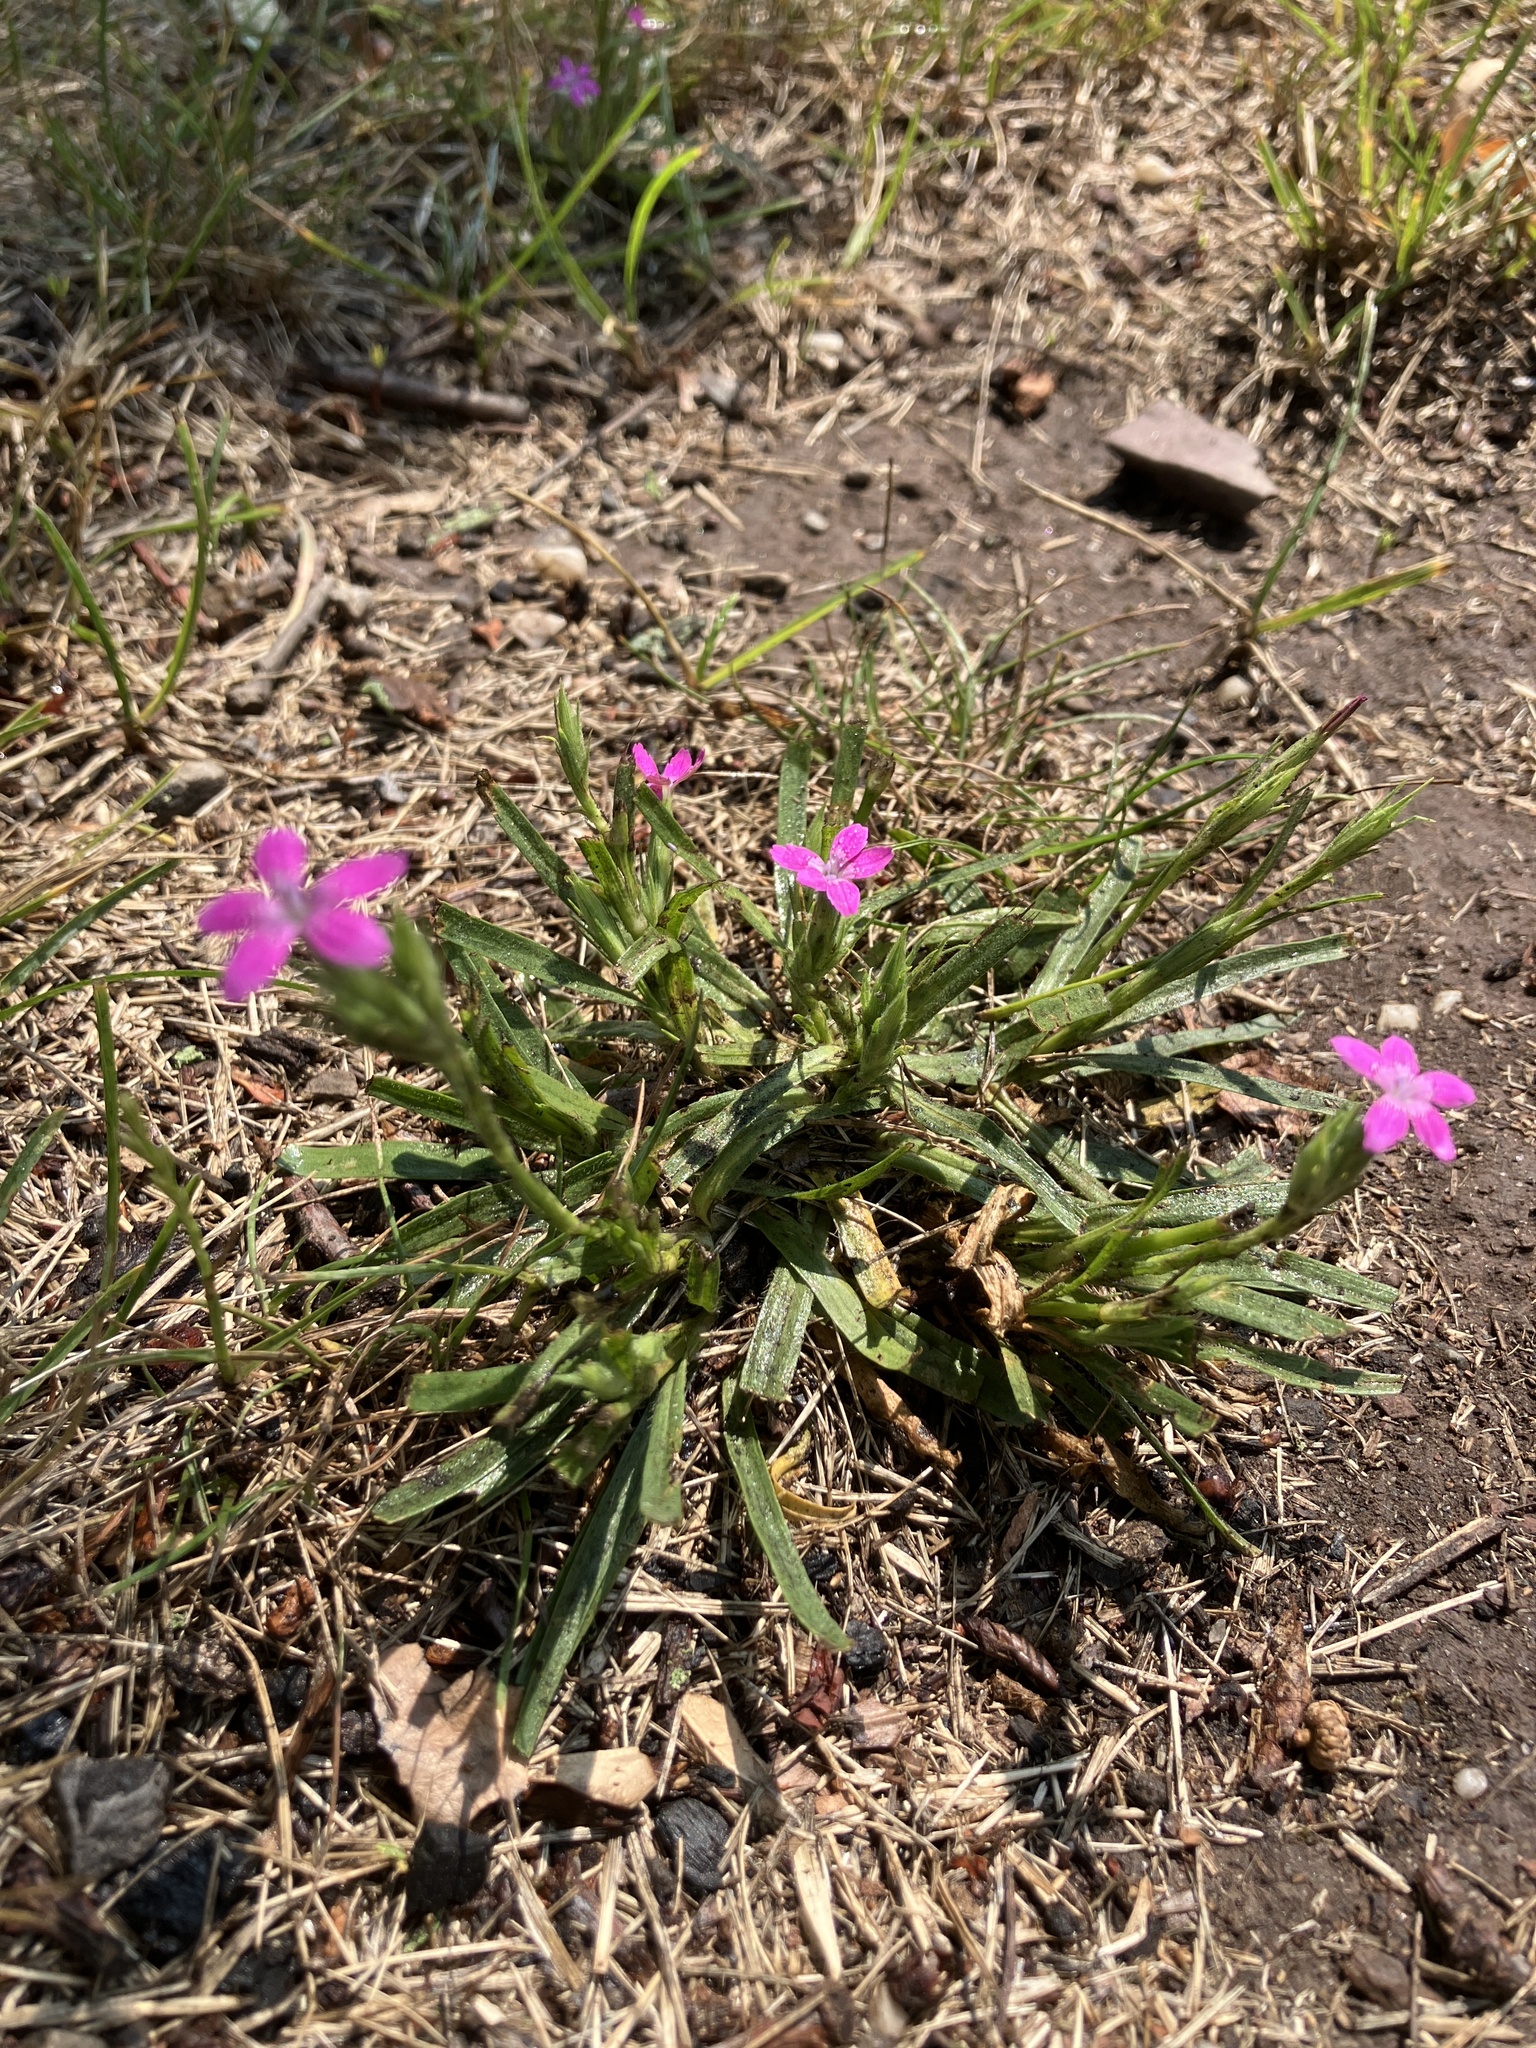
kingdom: Plantae
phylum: Tracheophyta
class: Magnoliopsida
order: Caryophyllales
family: Caryophyllaceae
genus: Dianthus
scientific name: Dianthus armeria
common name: Deptford pink
